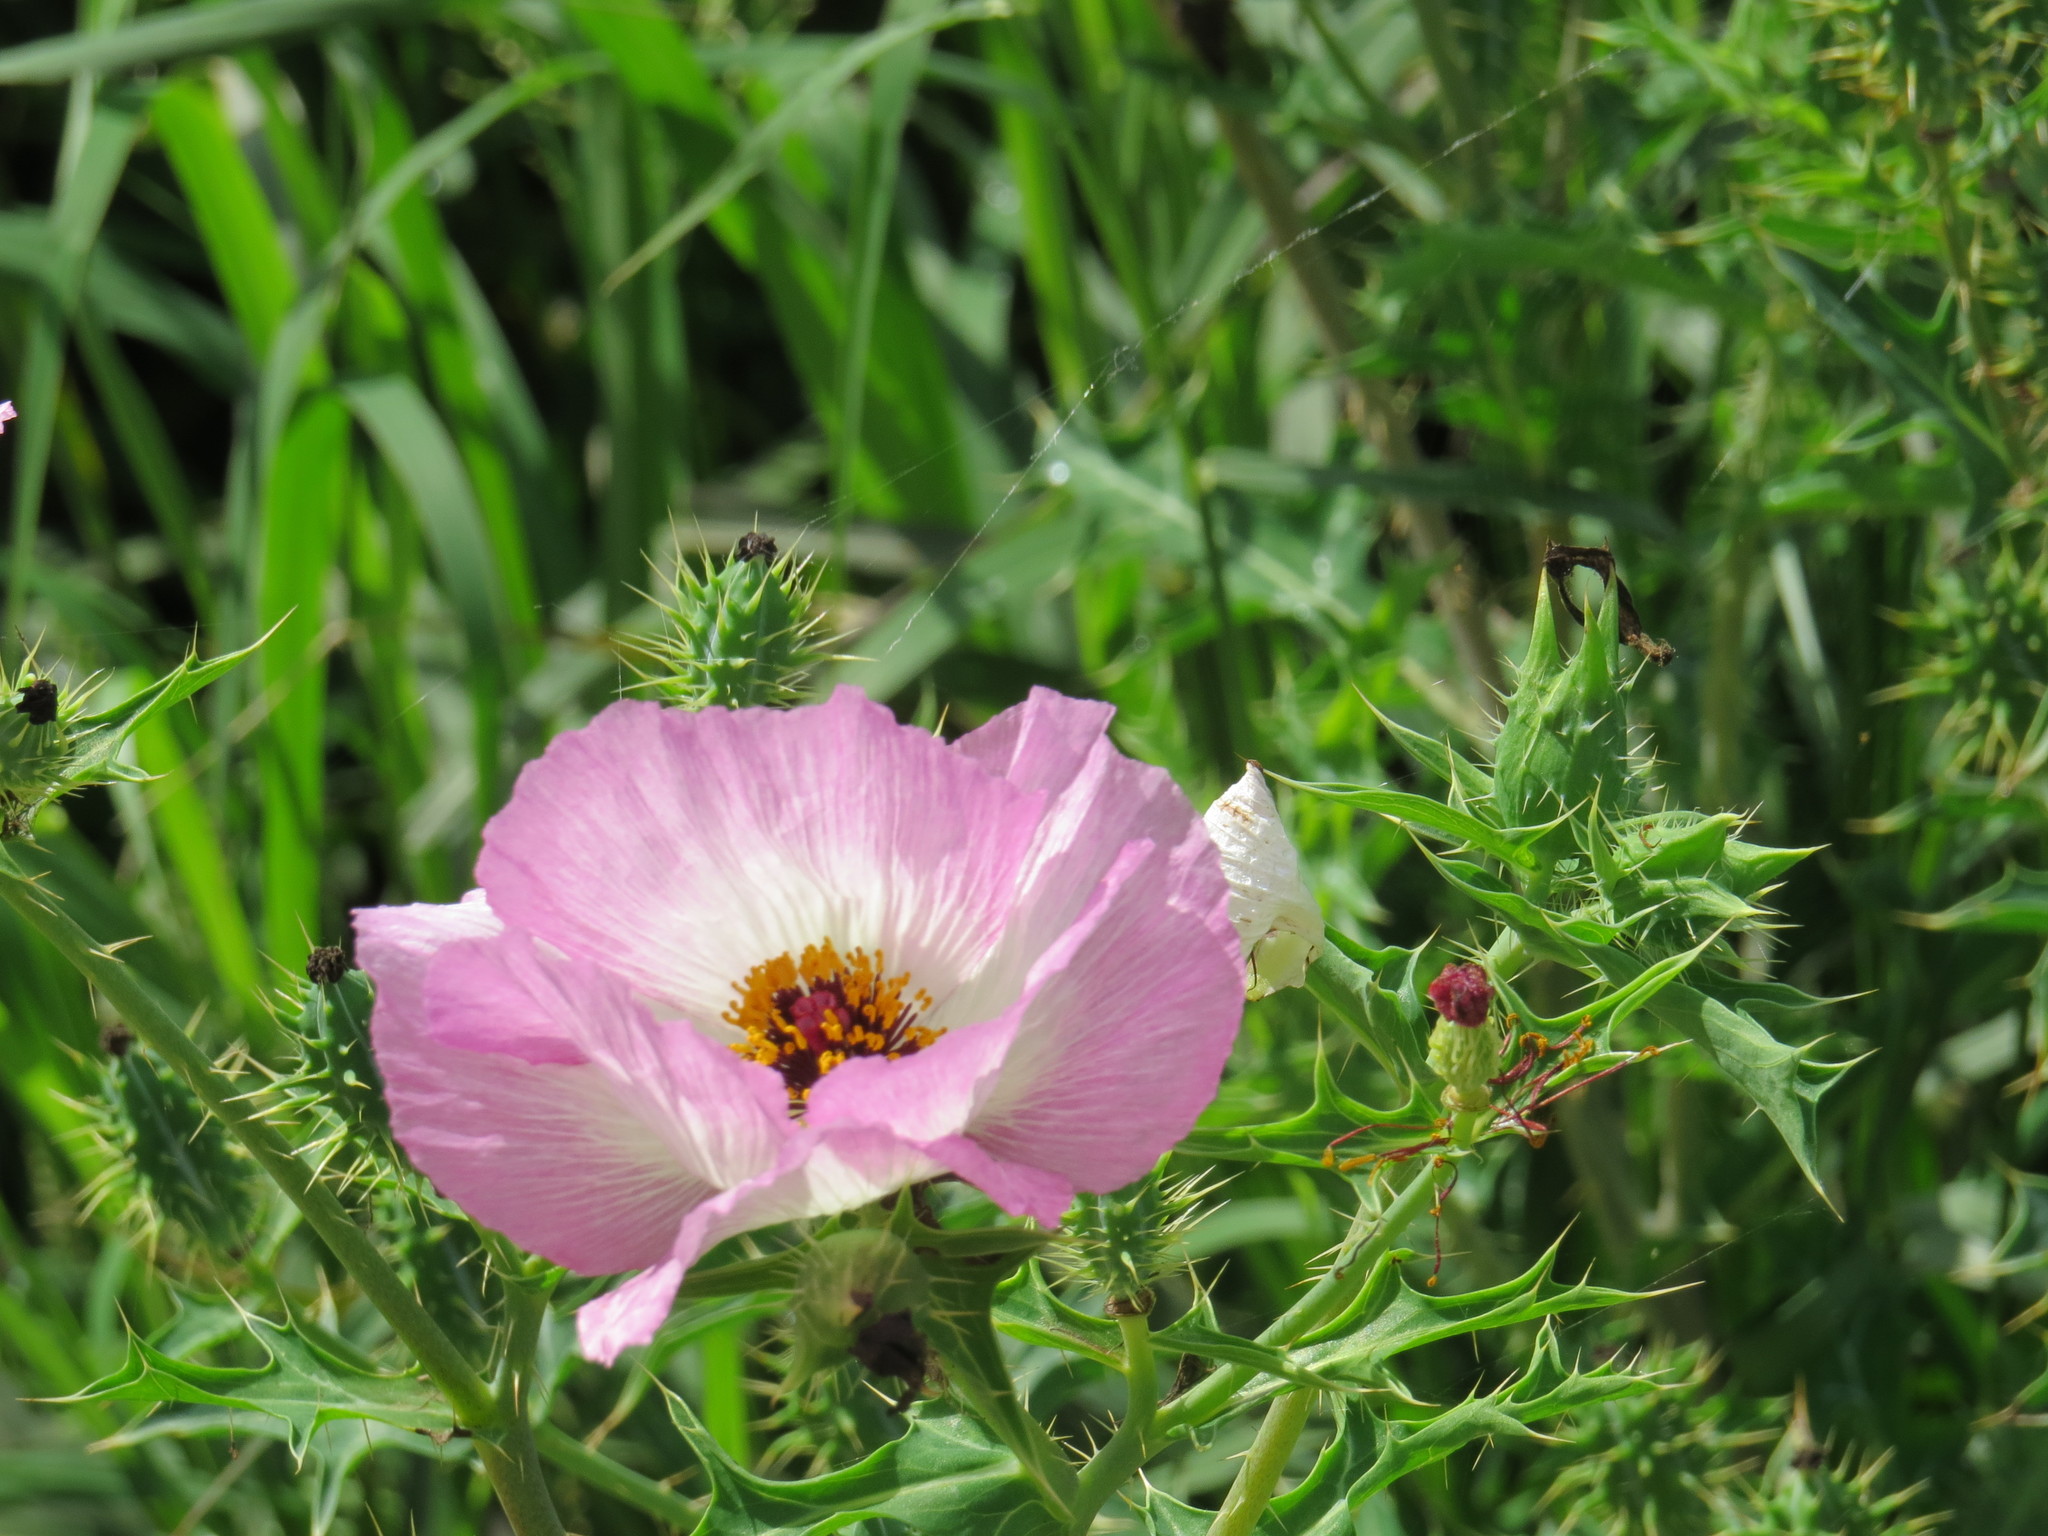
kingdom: Plantae
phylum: Tracheophyta
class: Magnoliopsida
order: Ranunculales
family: Papaveraceae
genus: Argemone
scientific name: Argemone sanguinea
